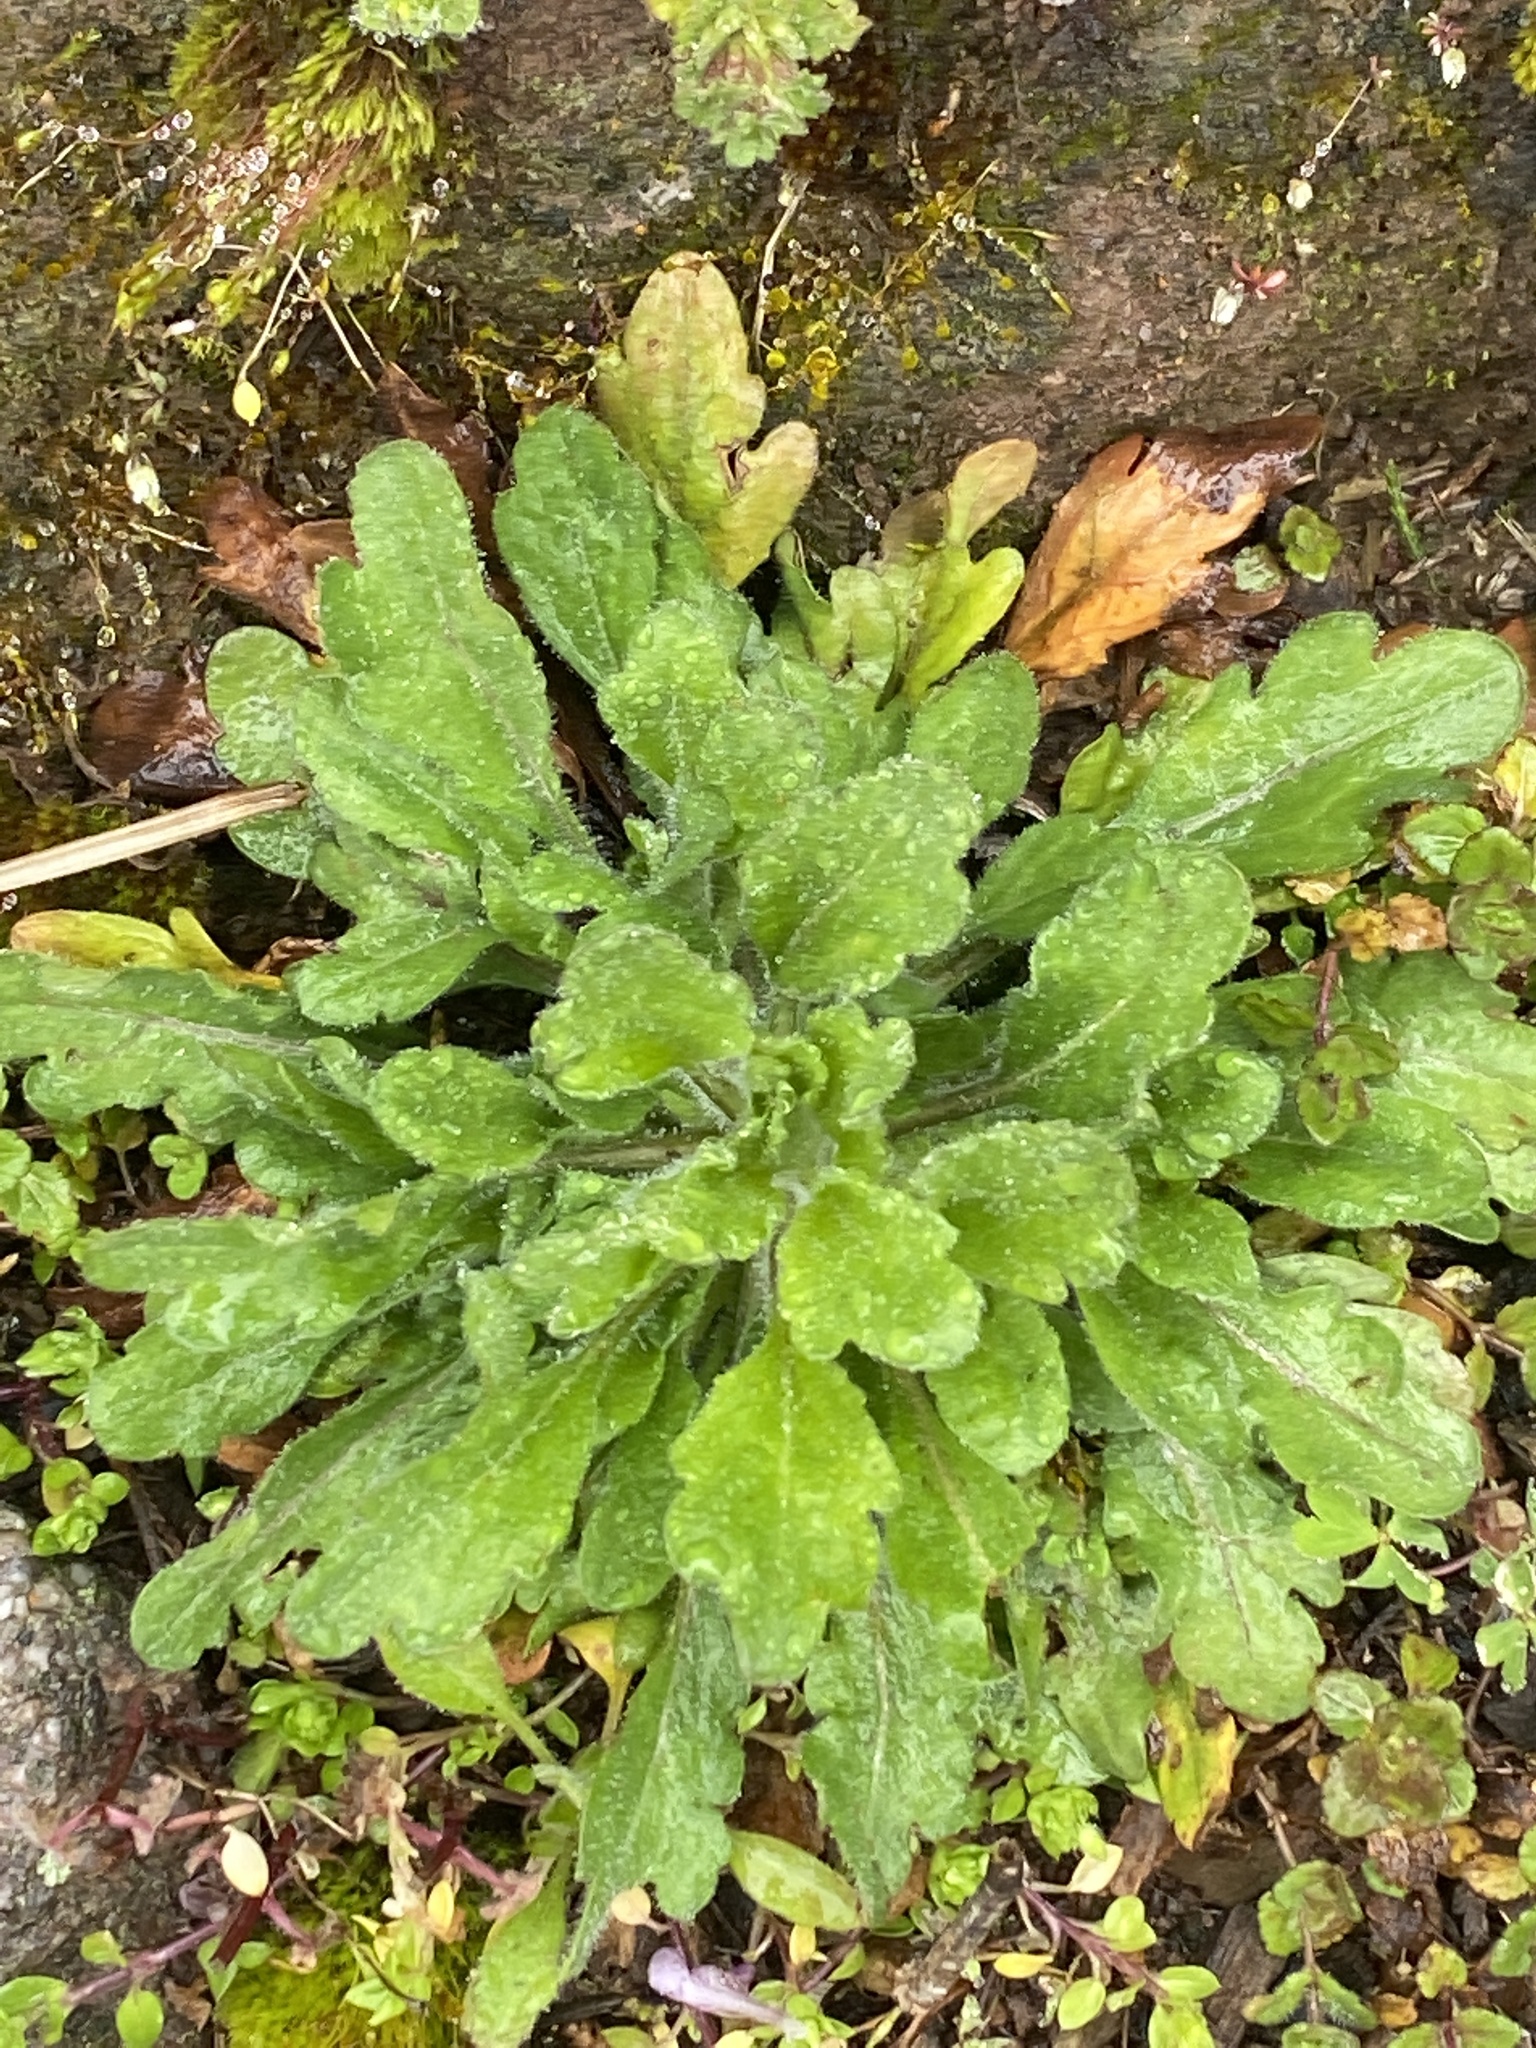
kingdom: Plantae
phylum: Tracheophyta
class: Magnoliopsida
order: Asterales
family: Asteraceae
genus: Erigeron
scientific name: Erigeron canadensis
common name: Canadian fleabane
